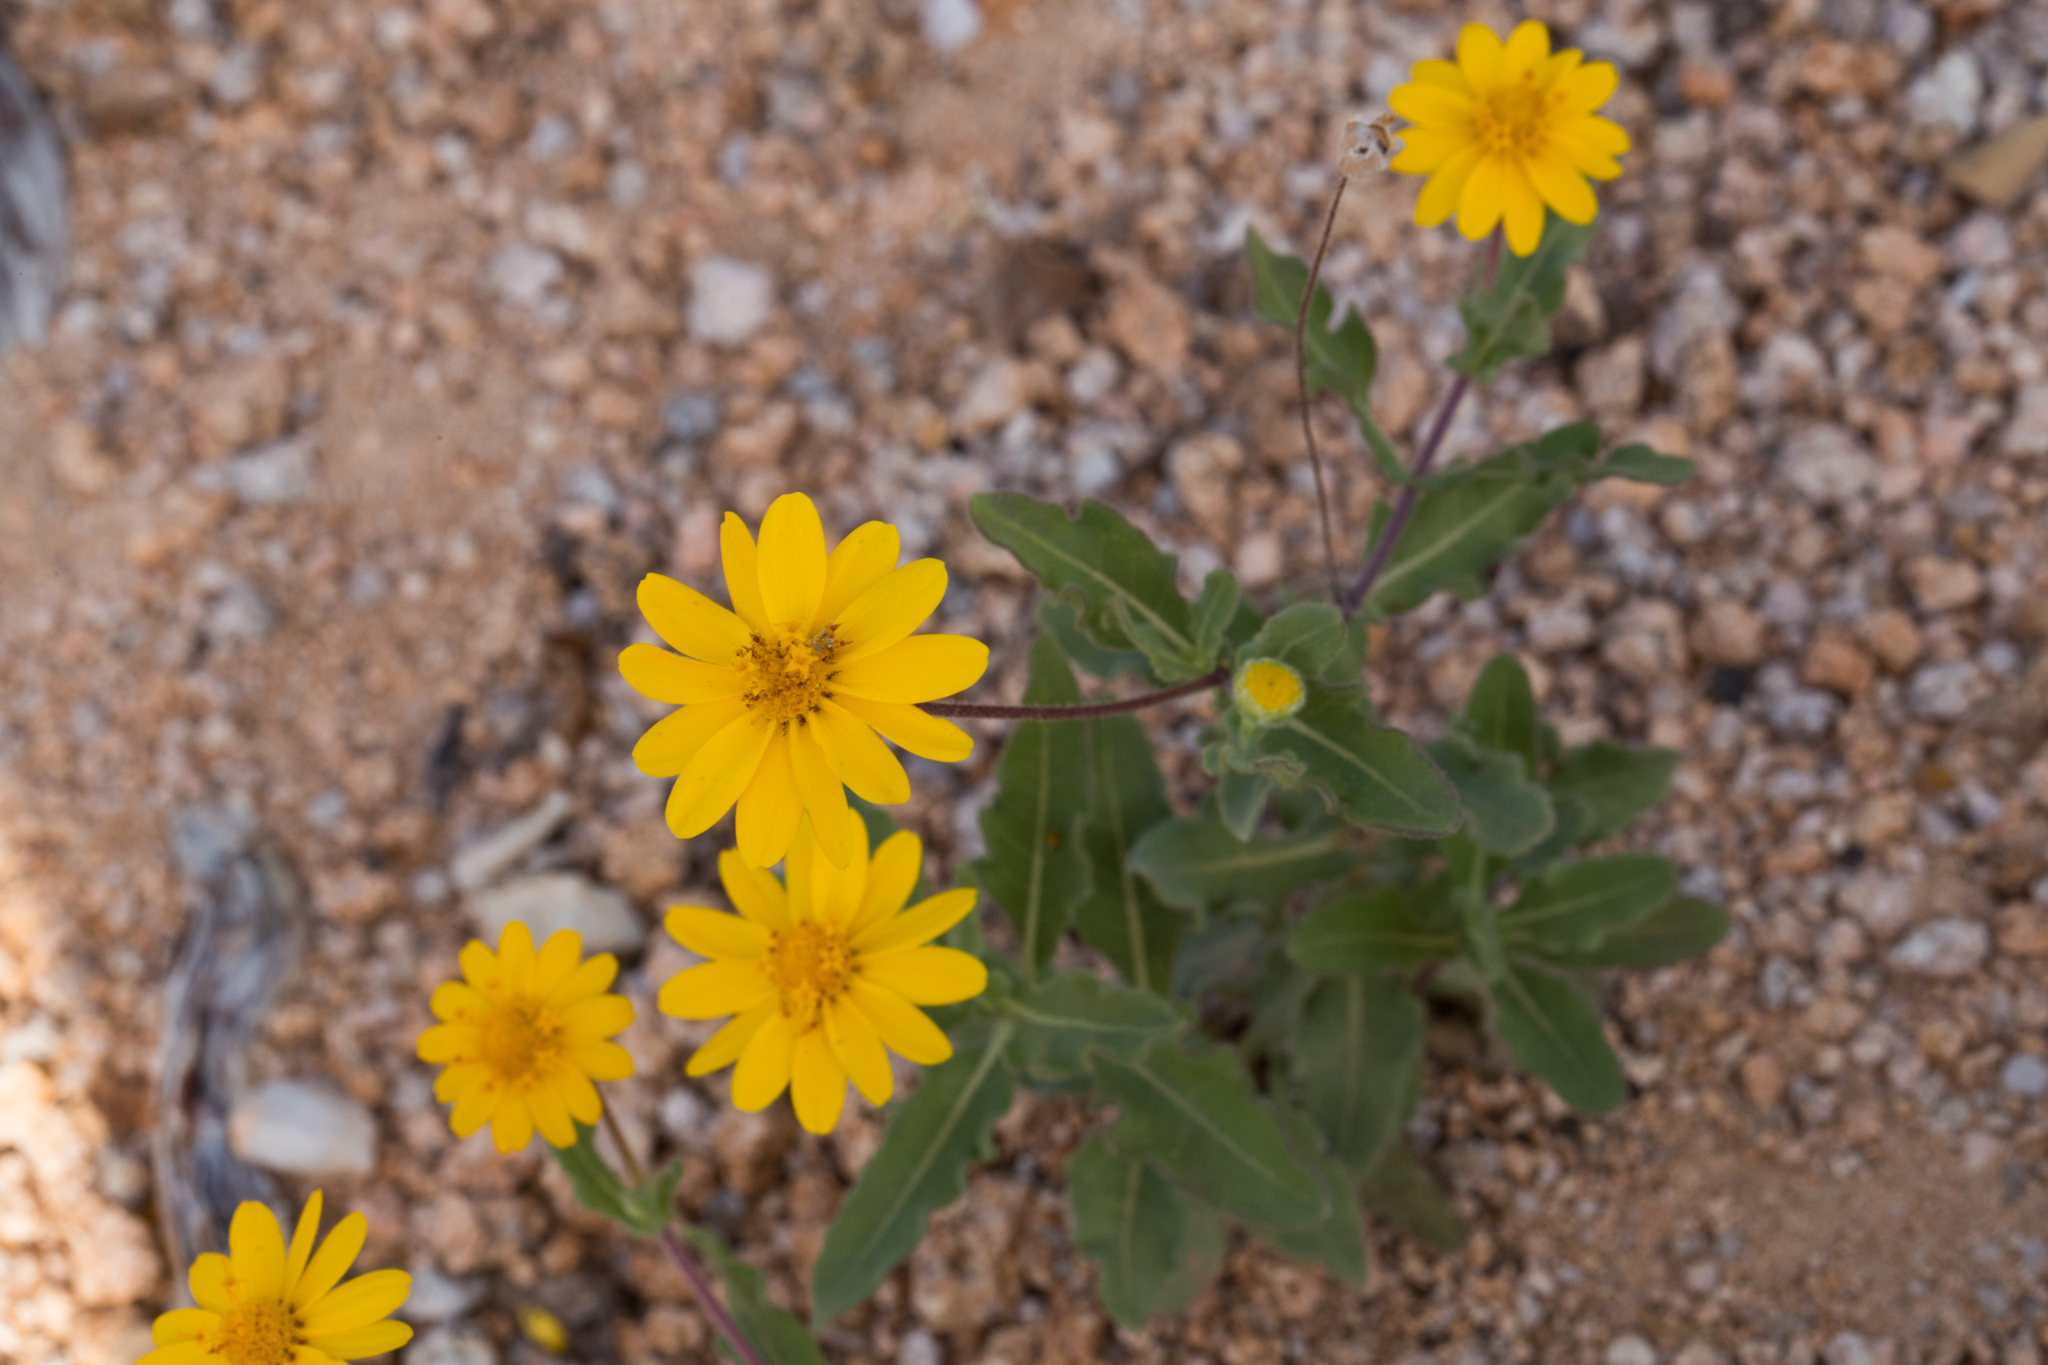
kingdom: Plantae
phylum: Tracheophyta
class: Magnoliopsida
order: Asterales
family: Asteraceae
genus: Melampodium
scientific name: Melampodium sinuatum
